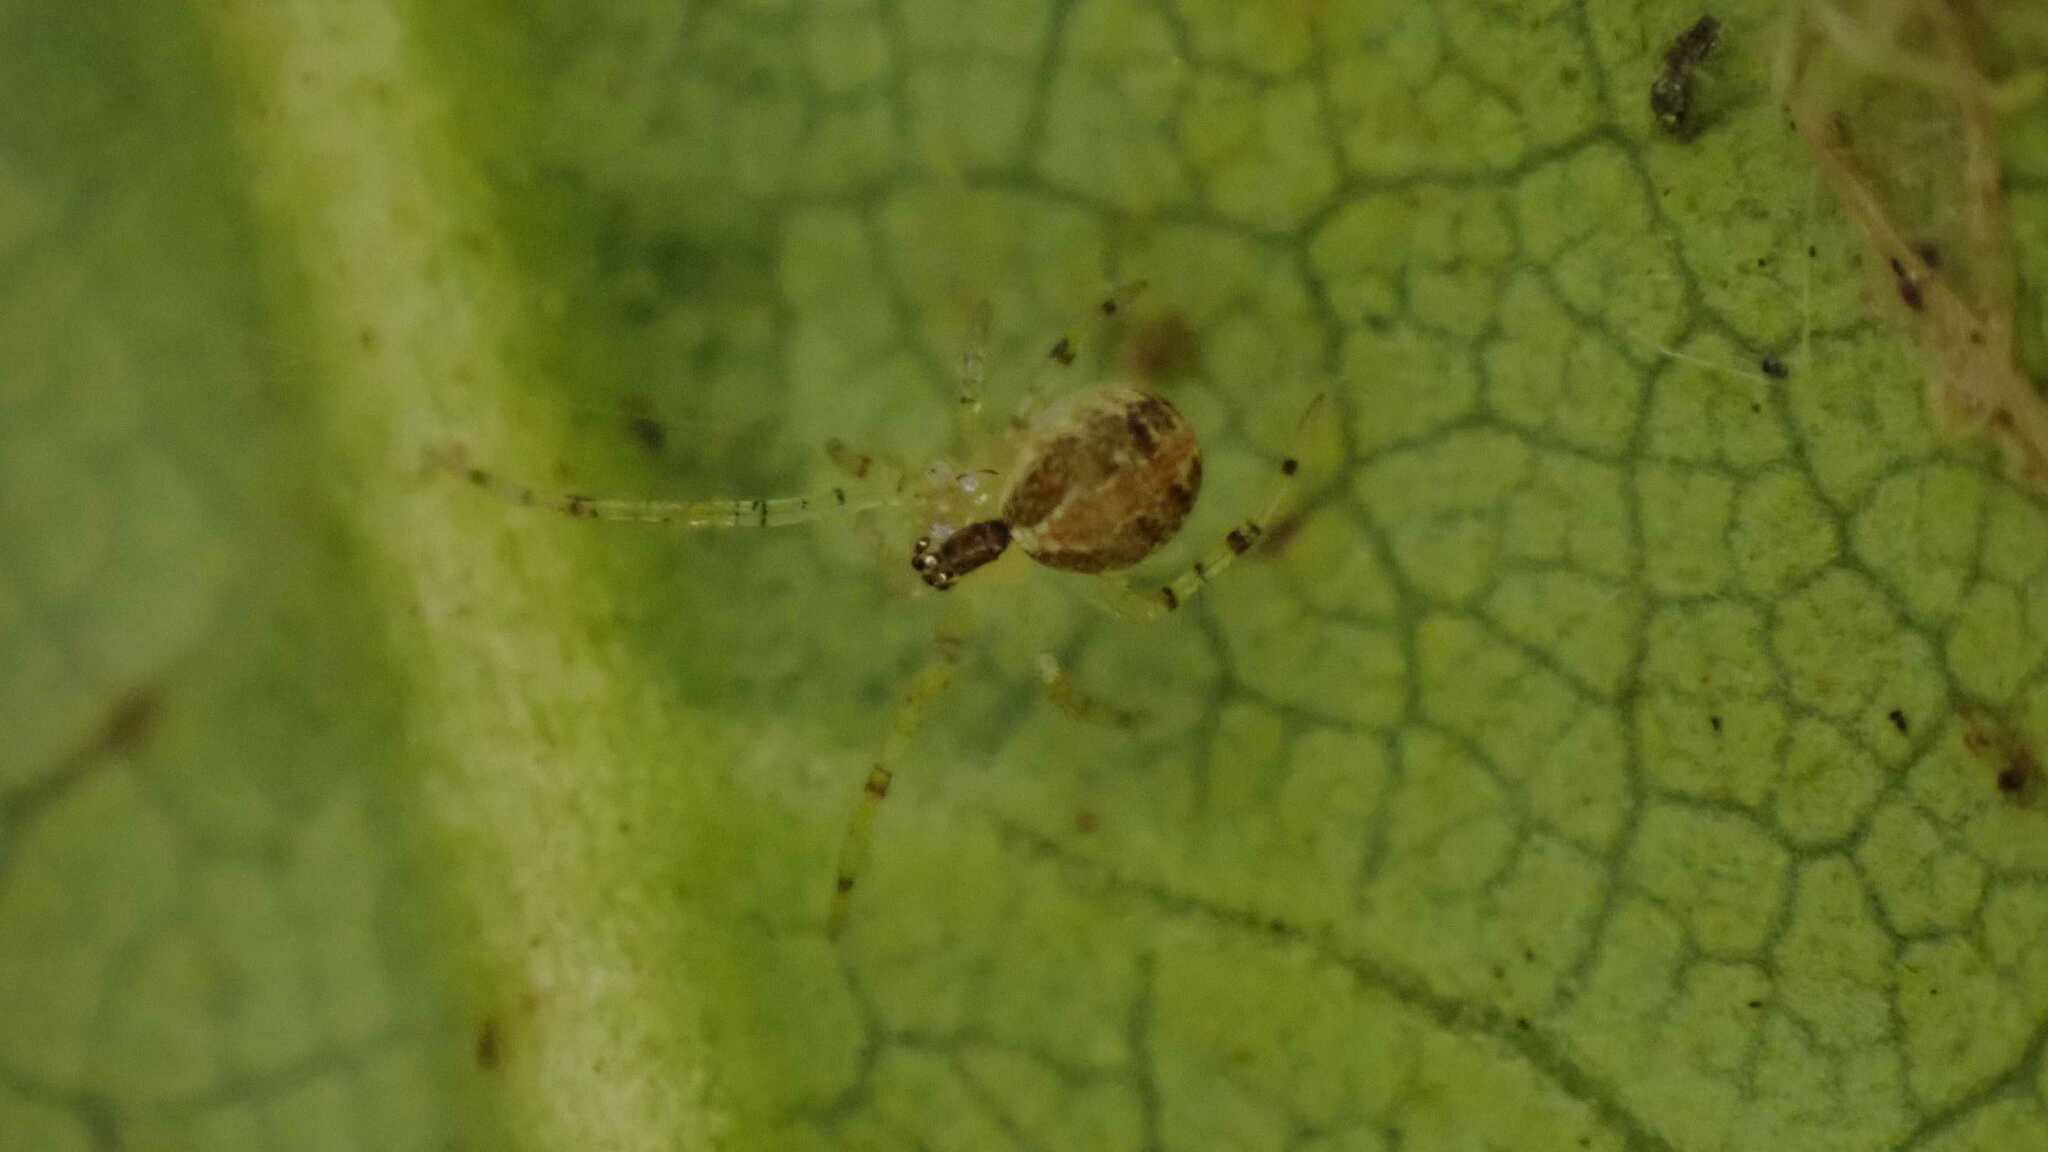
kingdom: Animalia
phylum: Arthropoda
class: Arachnida
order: Araneae
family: Theridiidae
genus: Theridion
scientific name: Theridion varians
